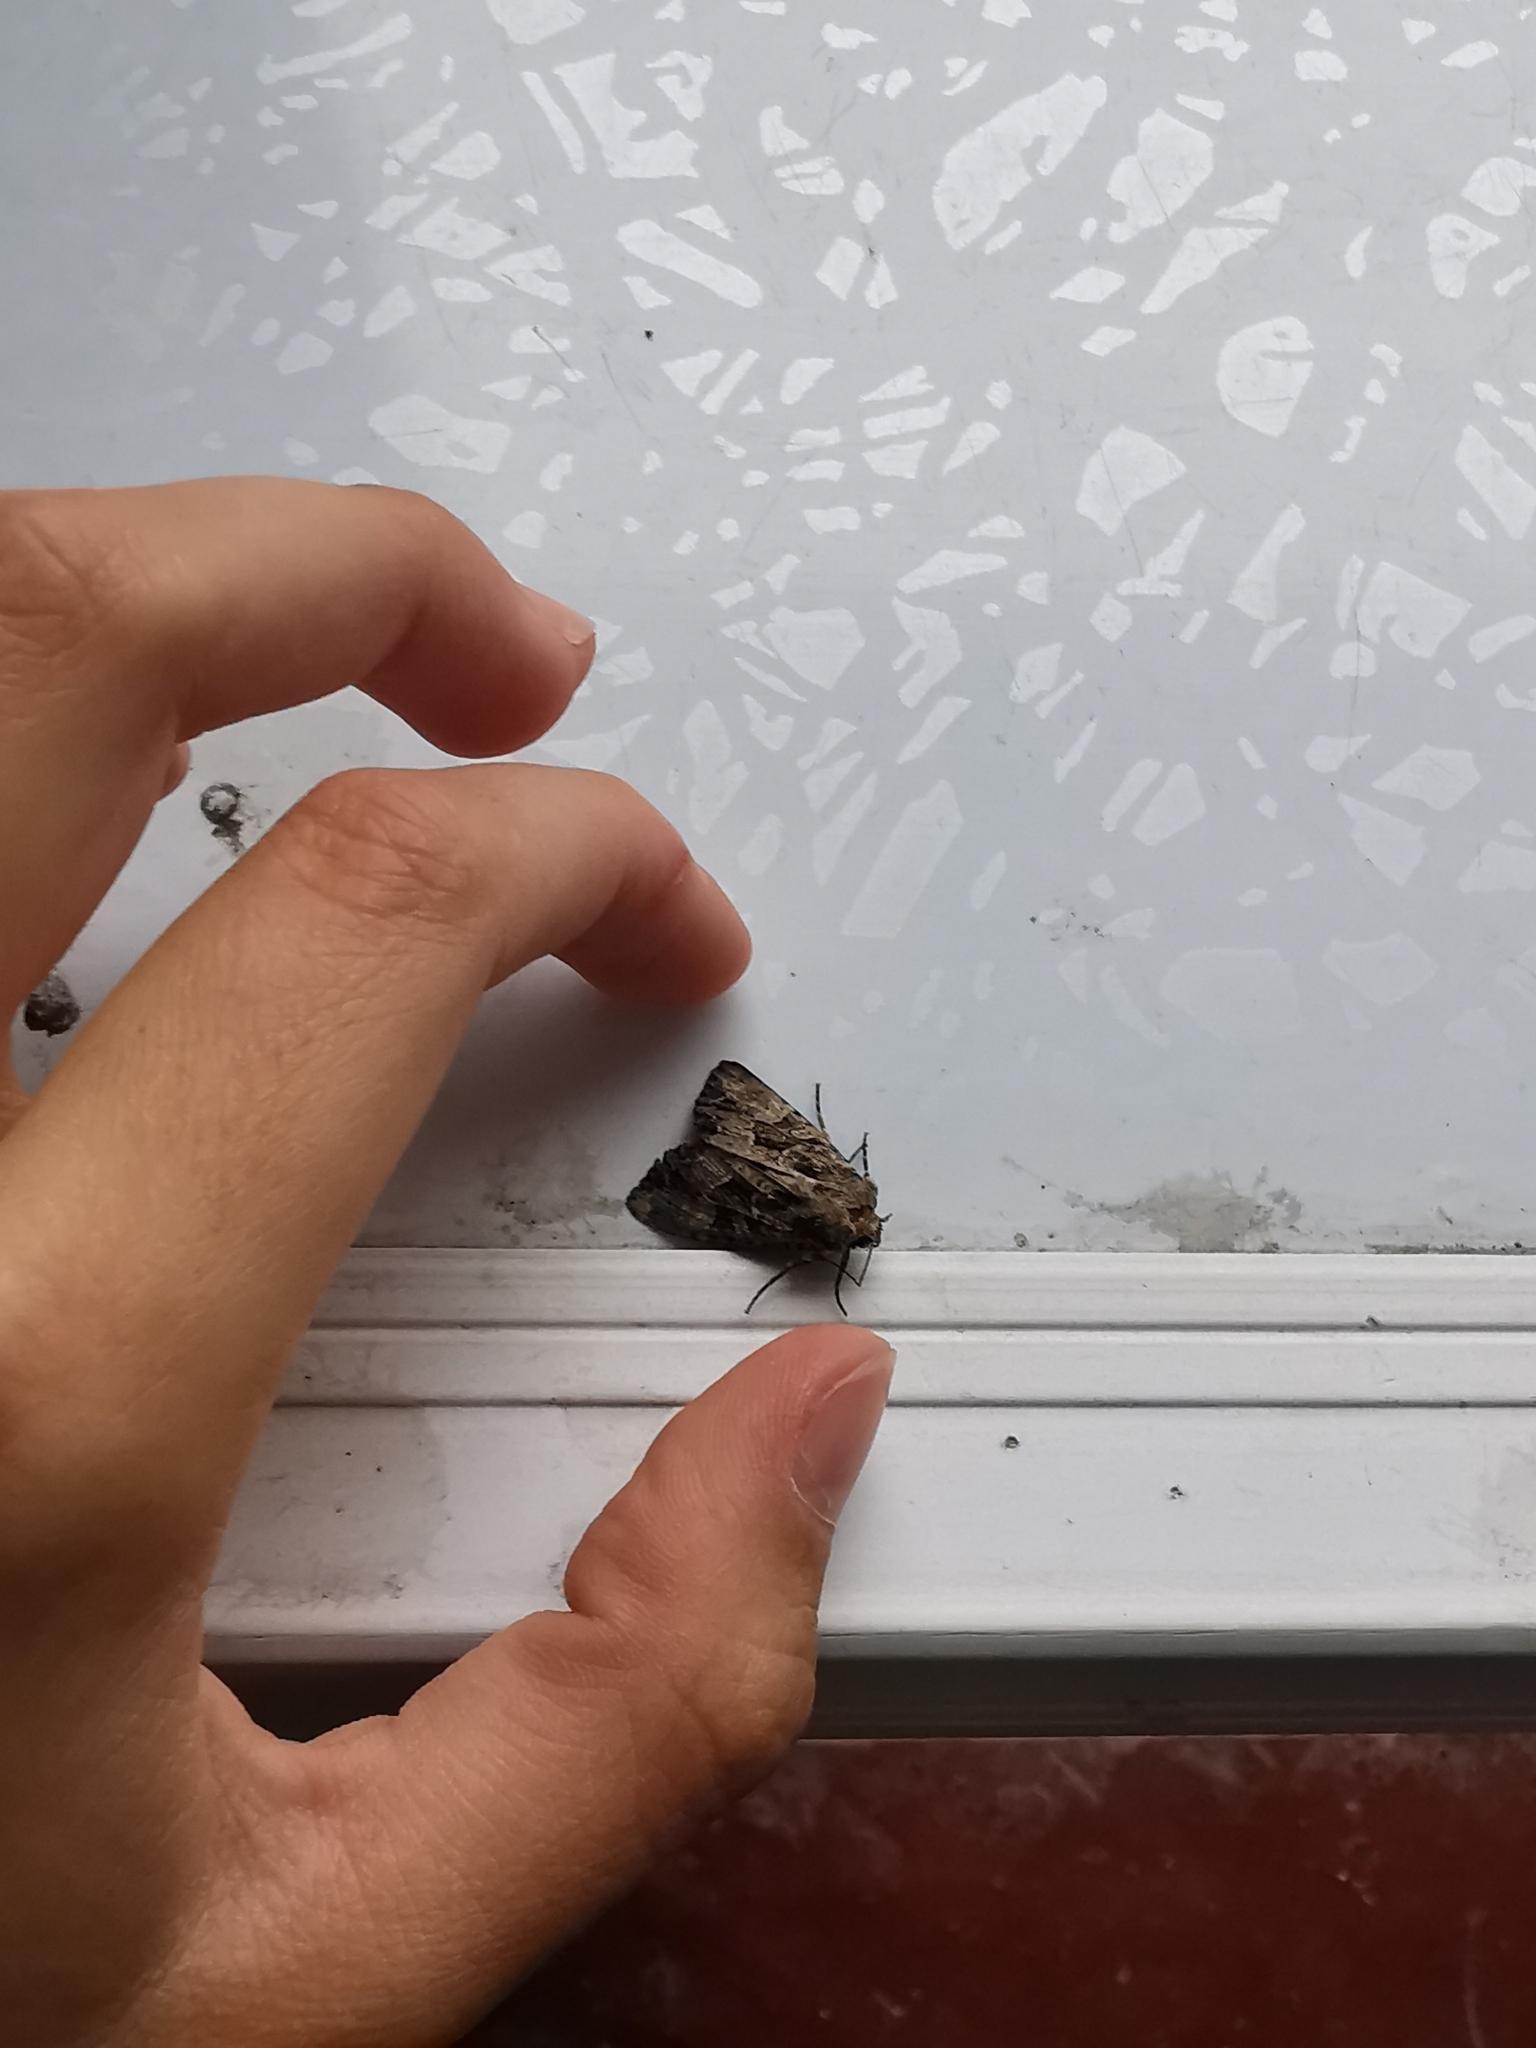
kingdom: Animalia
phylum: Arthropoda
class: Insecta
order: Lepidoptera
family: Noctuidae
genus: Apamea
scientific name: Apamea remissa
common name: Dusky brocade
